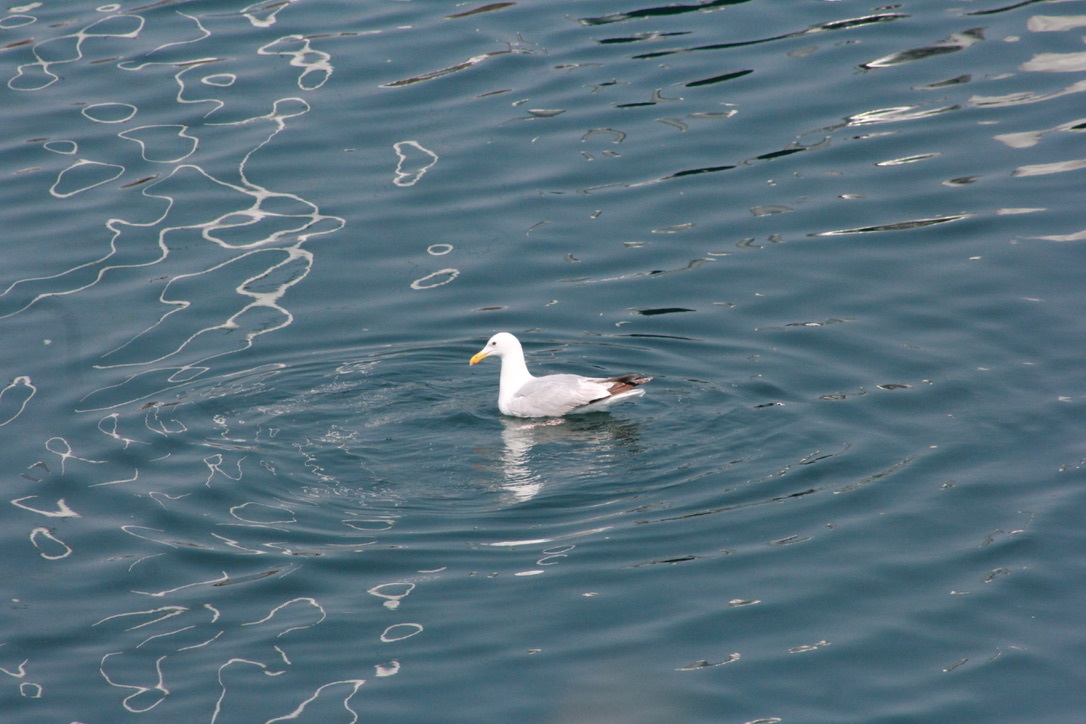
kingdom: Animalia
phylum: Chordata
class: Aves
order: Charadriiformes
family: Laridae
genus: Larus
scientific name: Larus
